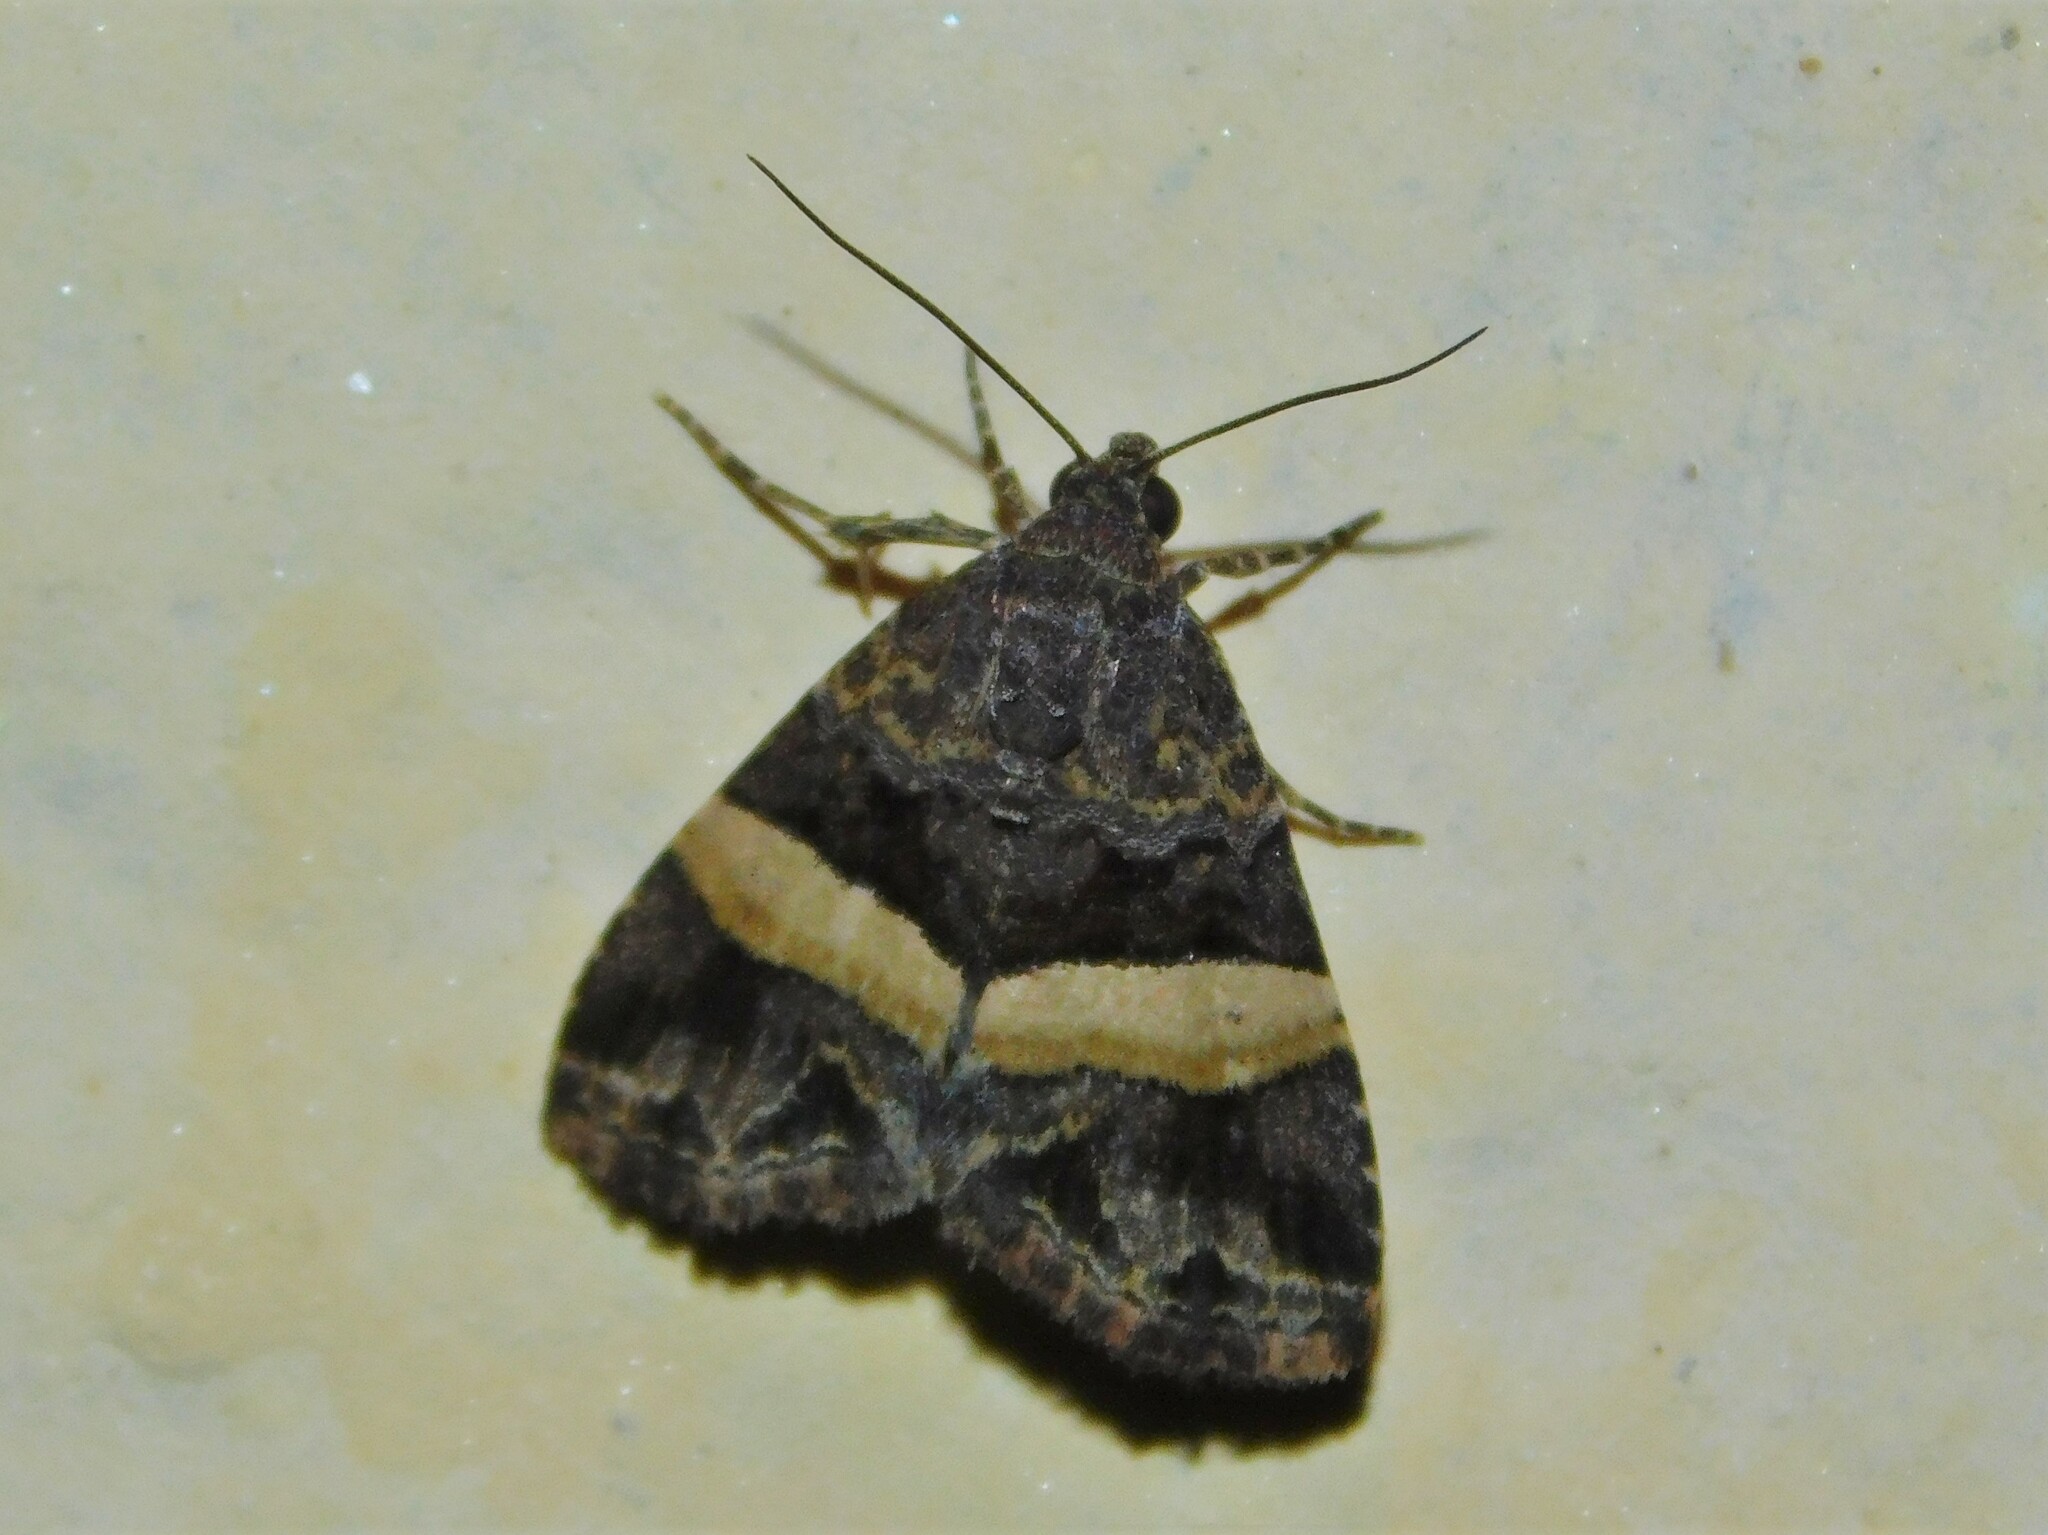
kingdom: Animalia
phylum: Arthropoda
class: Insecta
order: Lepidoptera
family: Noctuidae
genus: Ozarba
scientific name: Ozarba domina
